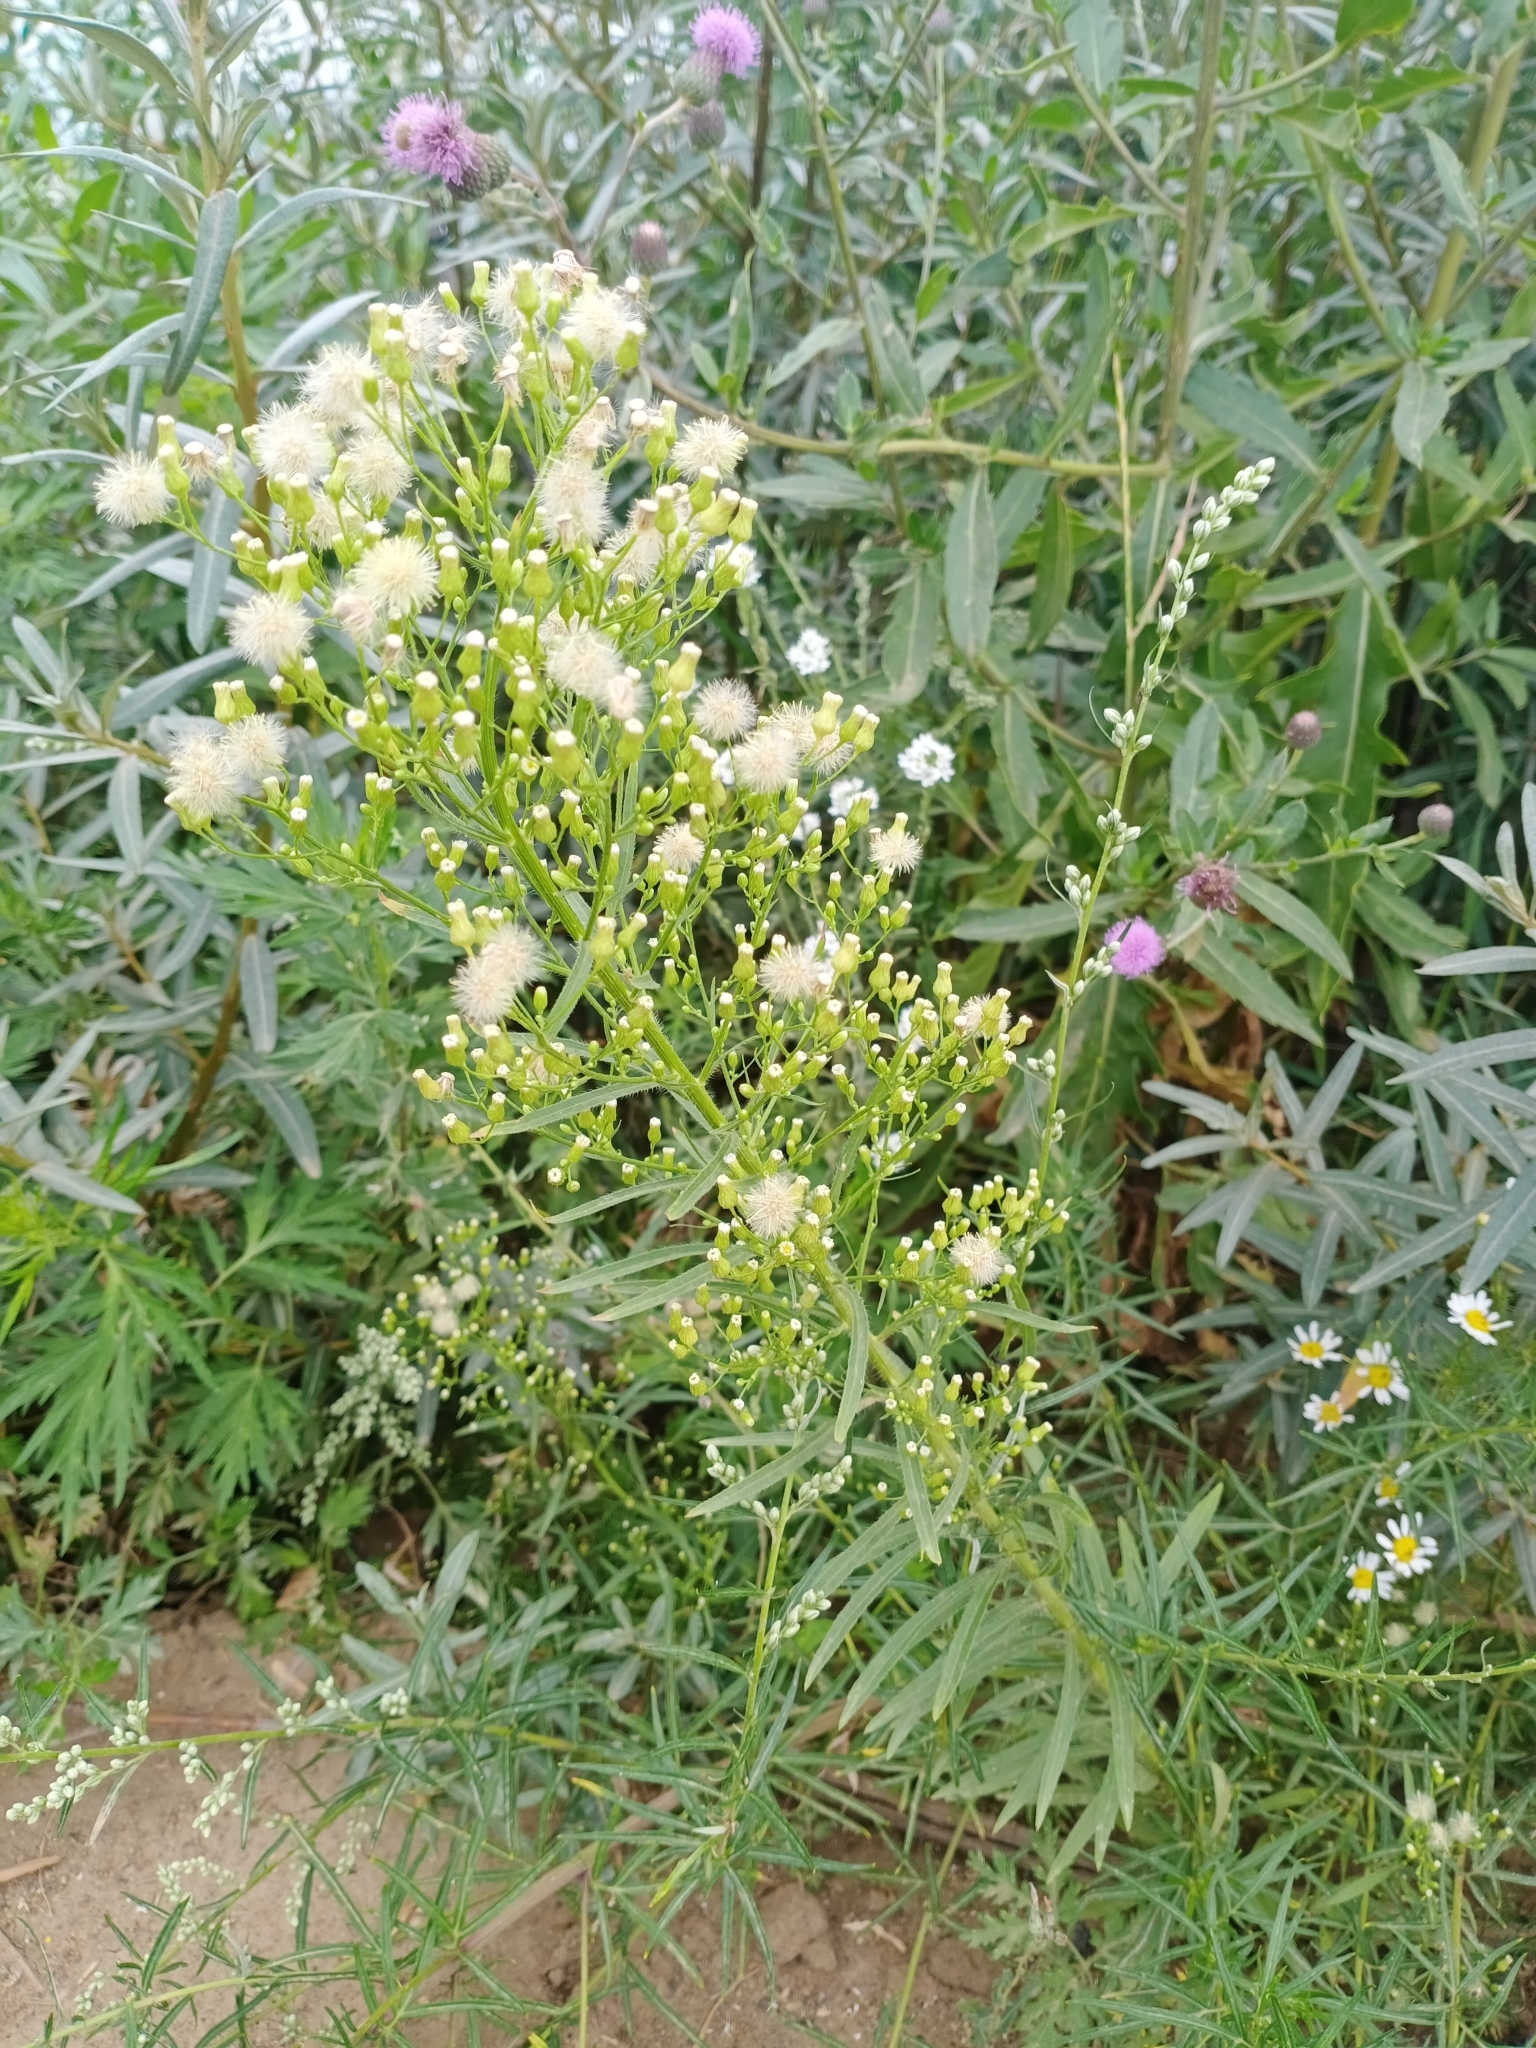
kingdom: Plantae
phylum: Tracheophyta
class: Magnoliopsida
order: Asterales
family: Asteraceae
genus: Erigeron
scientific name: Erigeron canadensis
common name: Canadian fleabane
